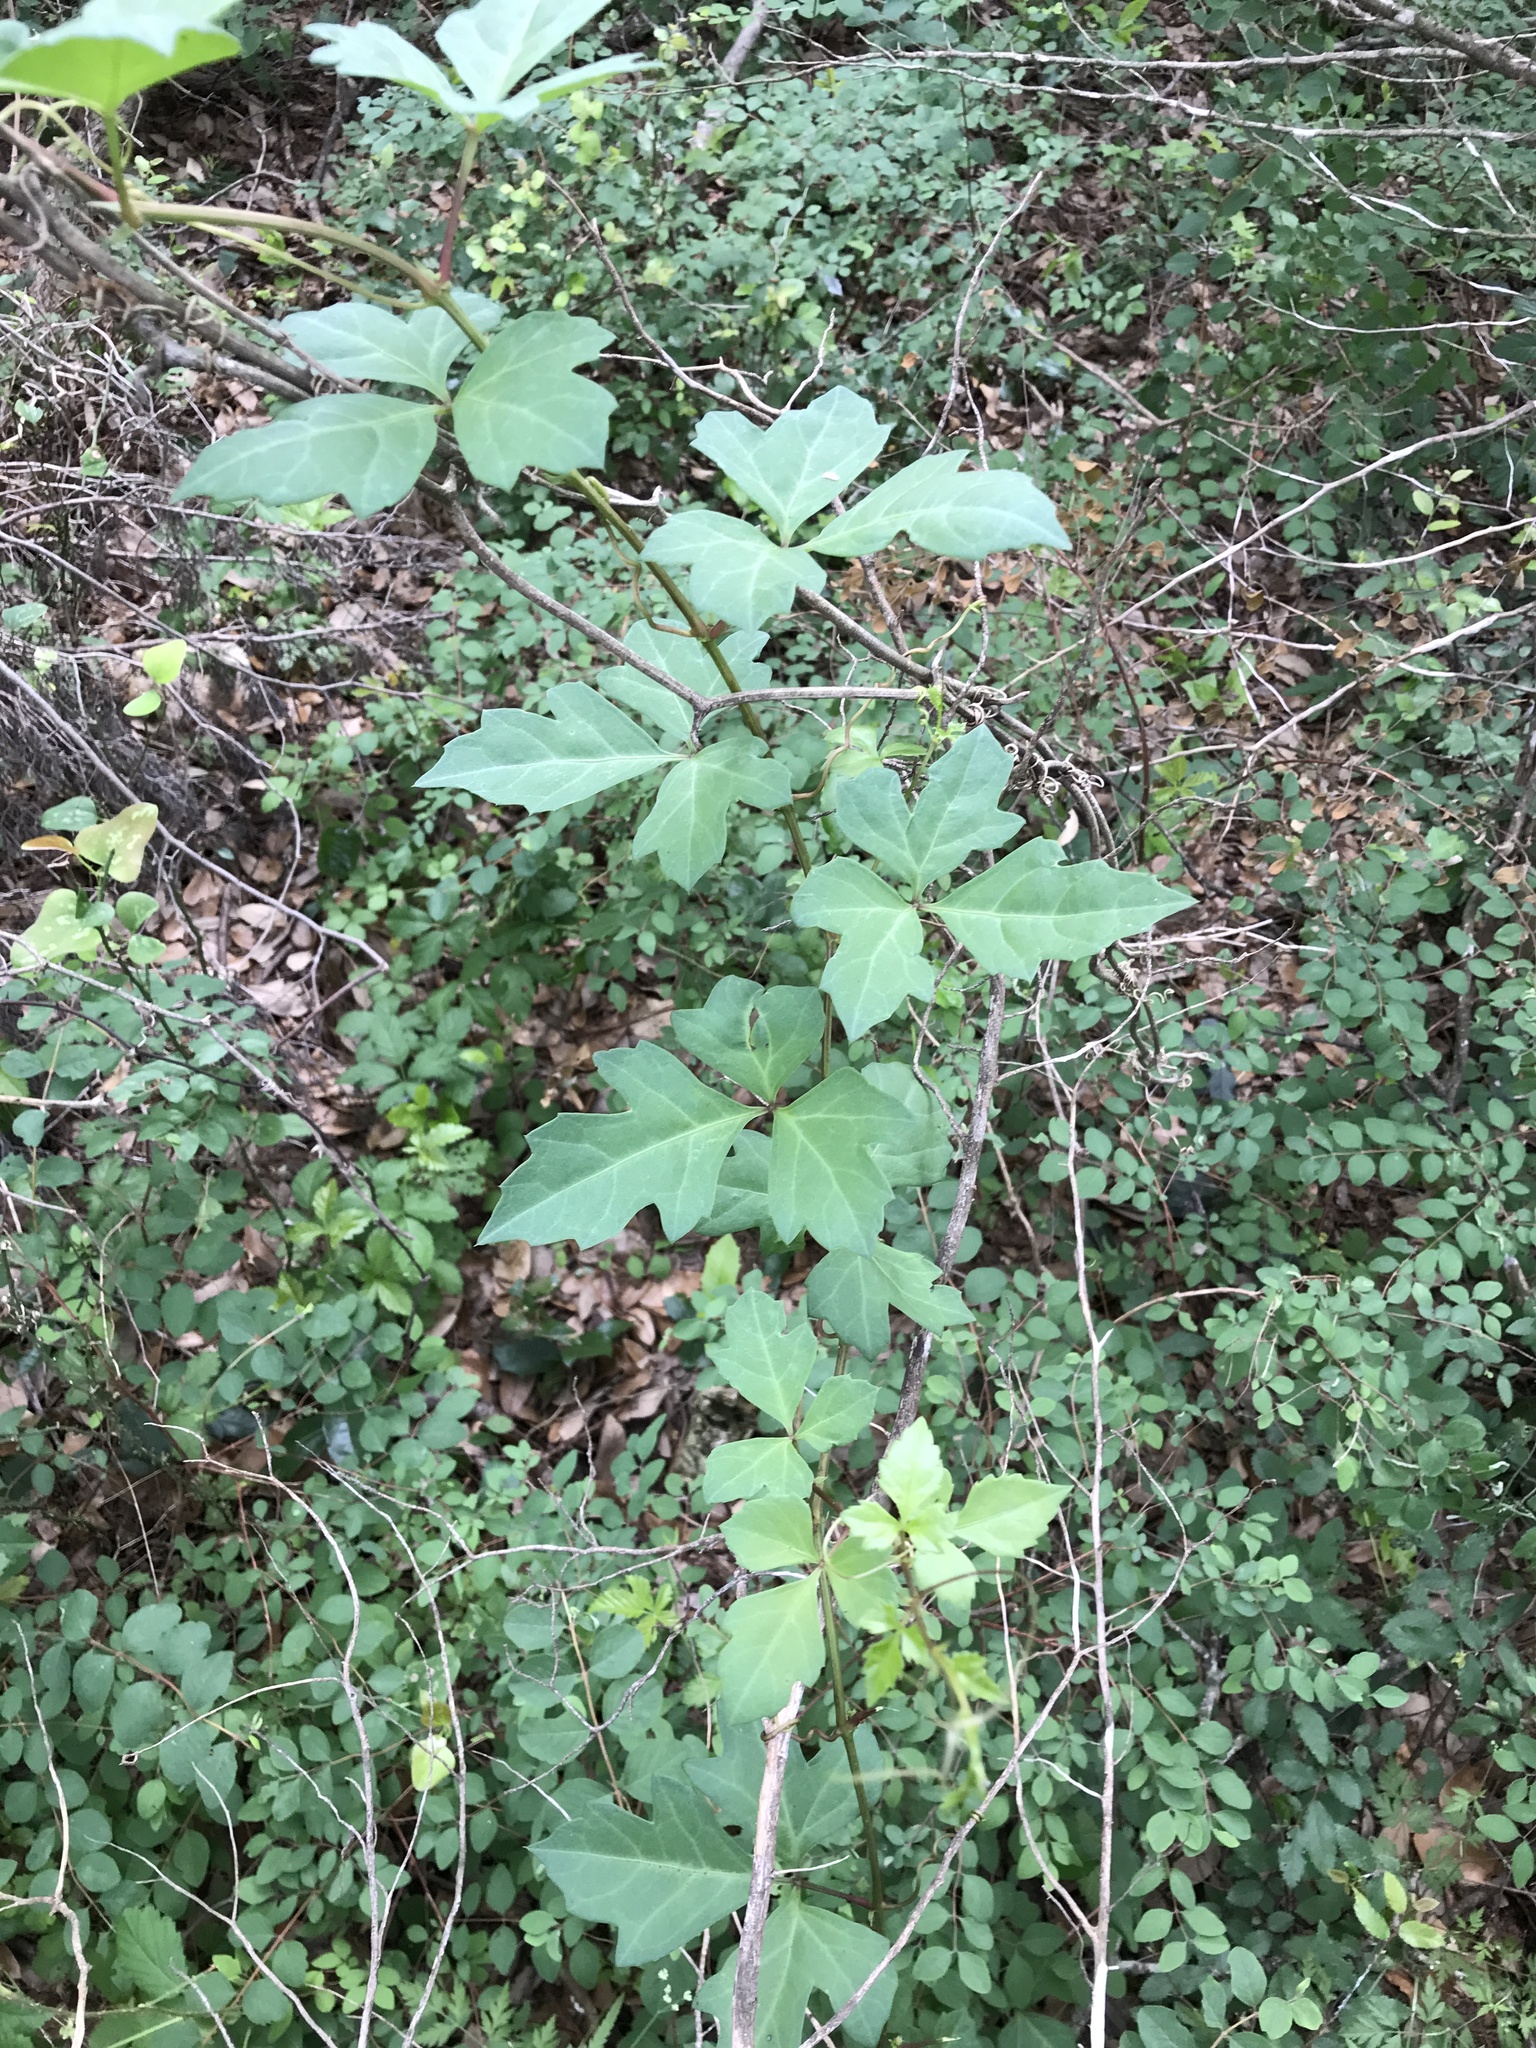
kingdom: Plantae
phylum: Tracheophyta
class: Magnoliopsida
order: Vitales
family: Vitaceae
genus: Cissus
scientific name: Cissus trifoliata
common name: Vine-sorrel
